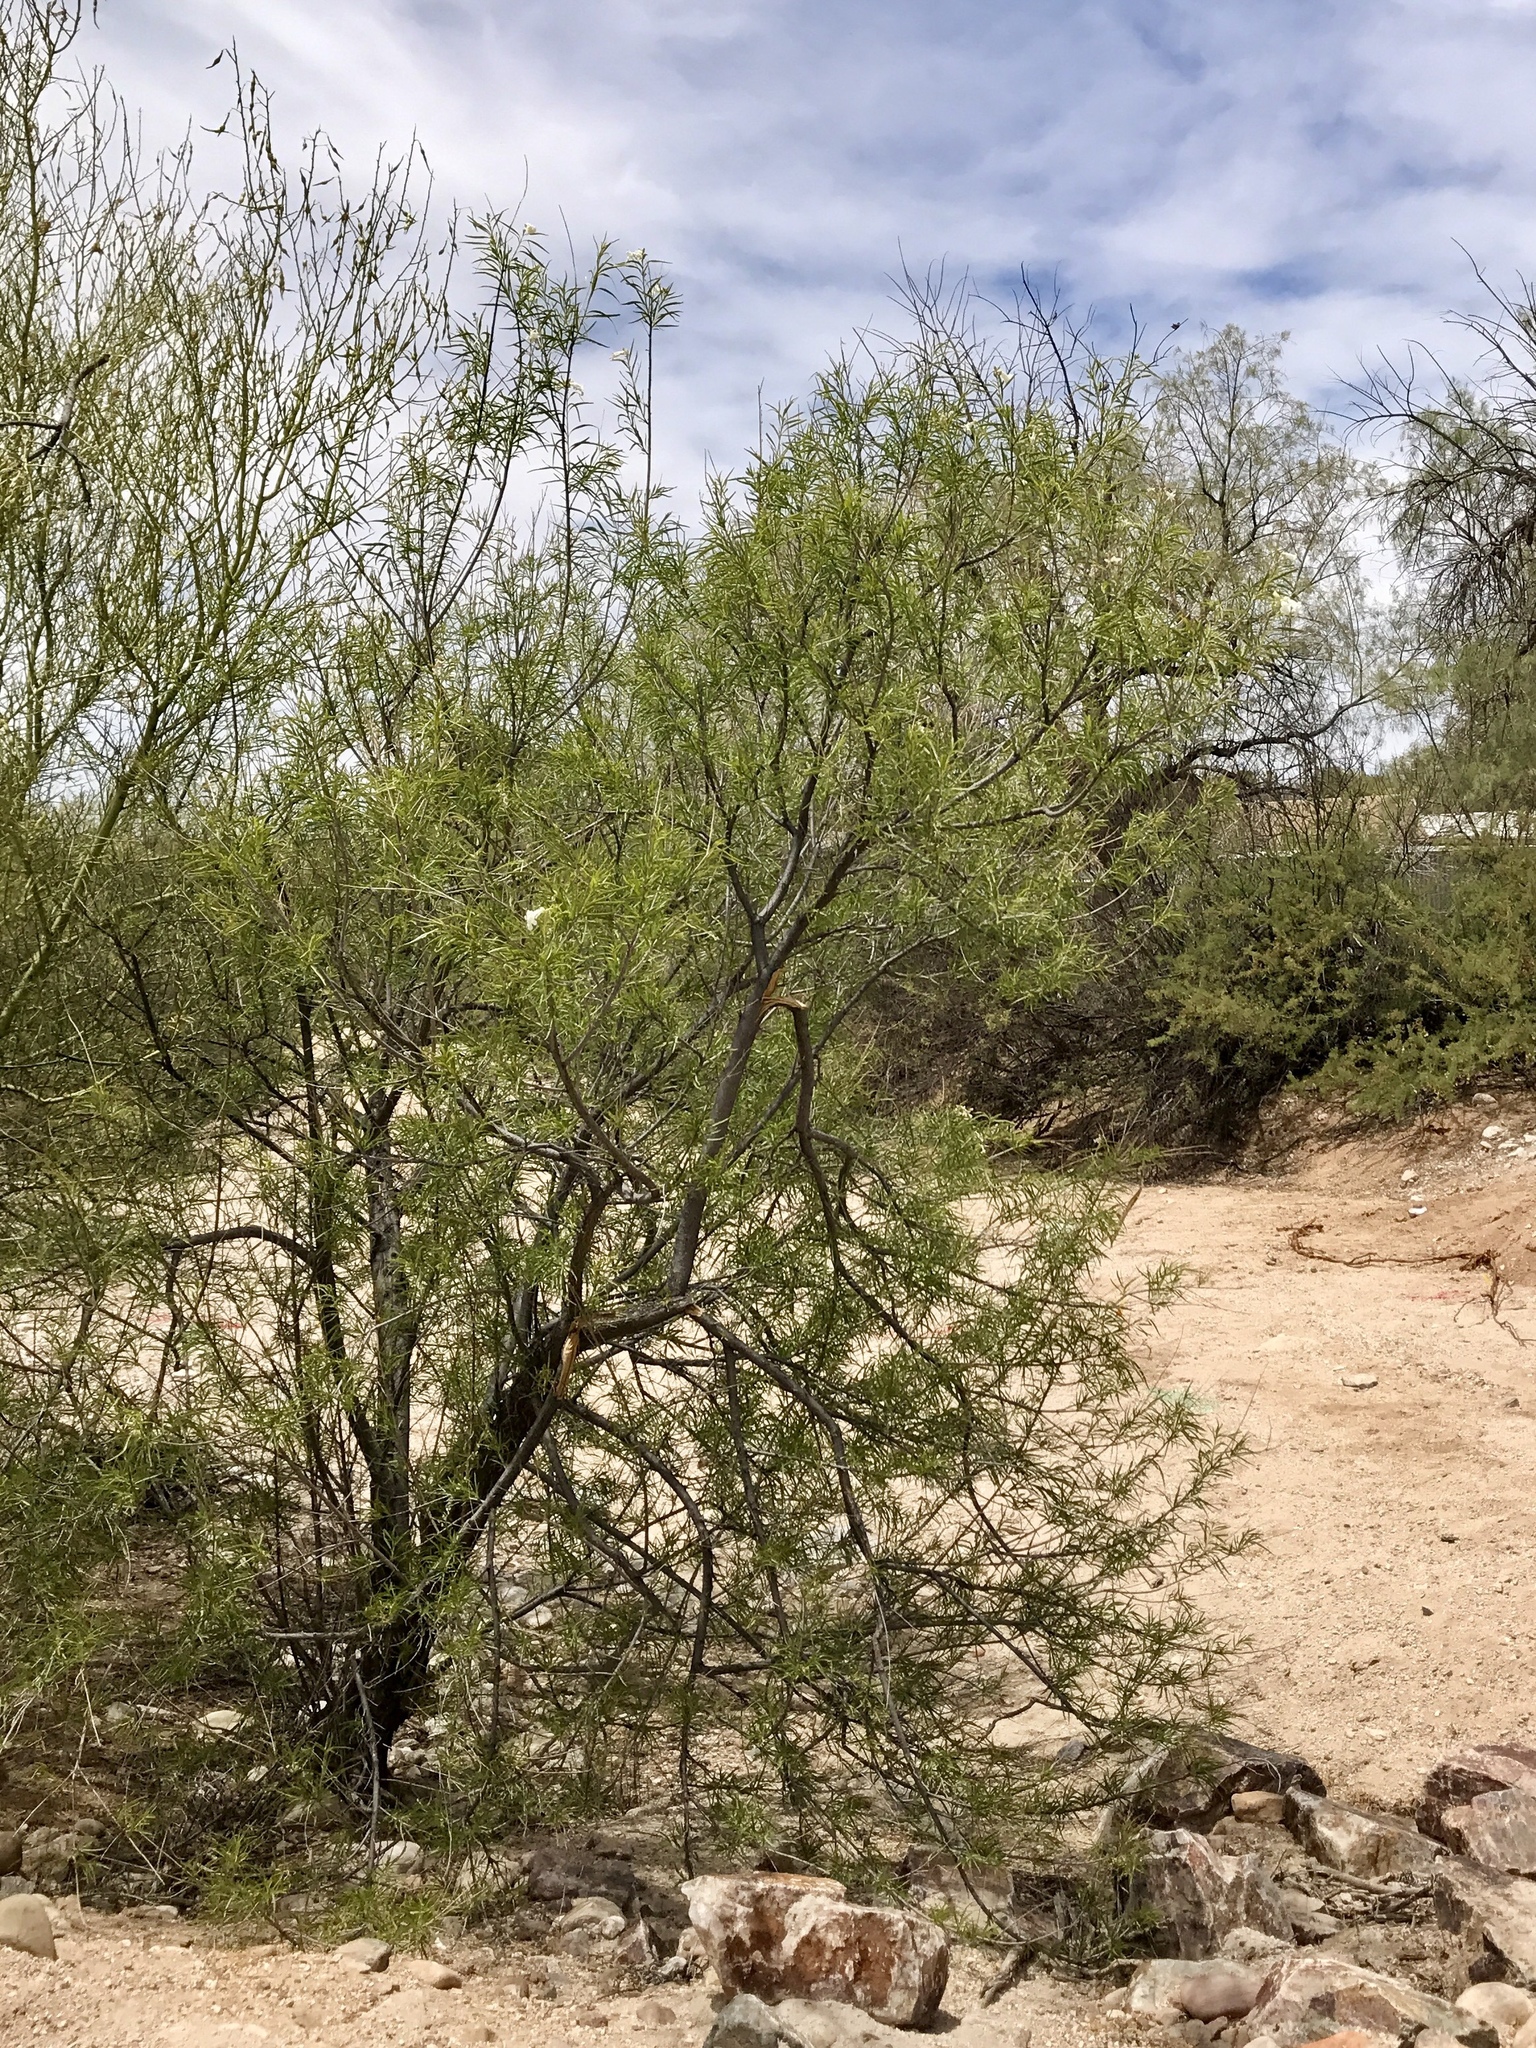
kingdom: Plantae
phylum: Tracheophyta
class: Magnoliopsida
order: Lamiales
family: Bignoniaceae
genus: Chilopsis
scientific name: Chilopsis linearis
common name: Desert-willow
